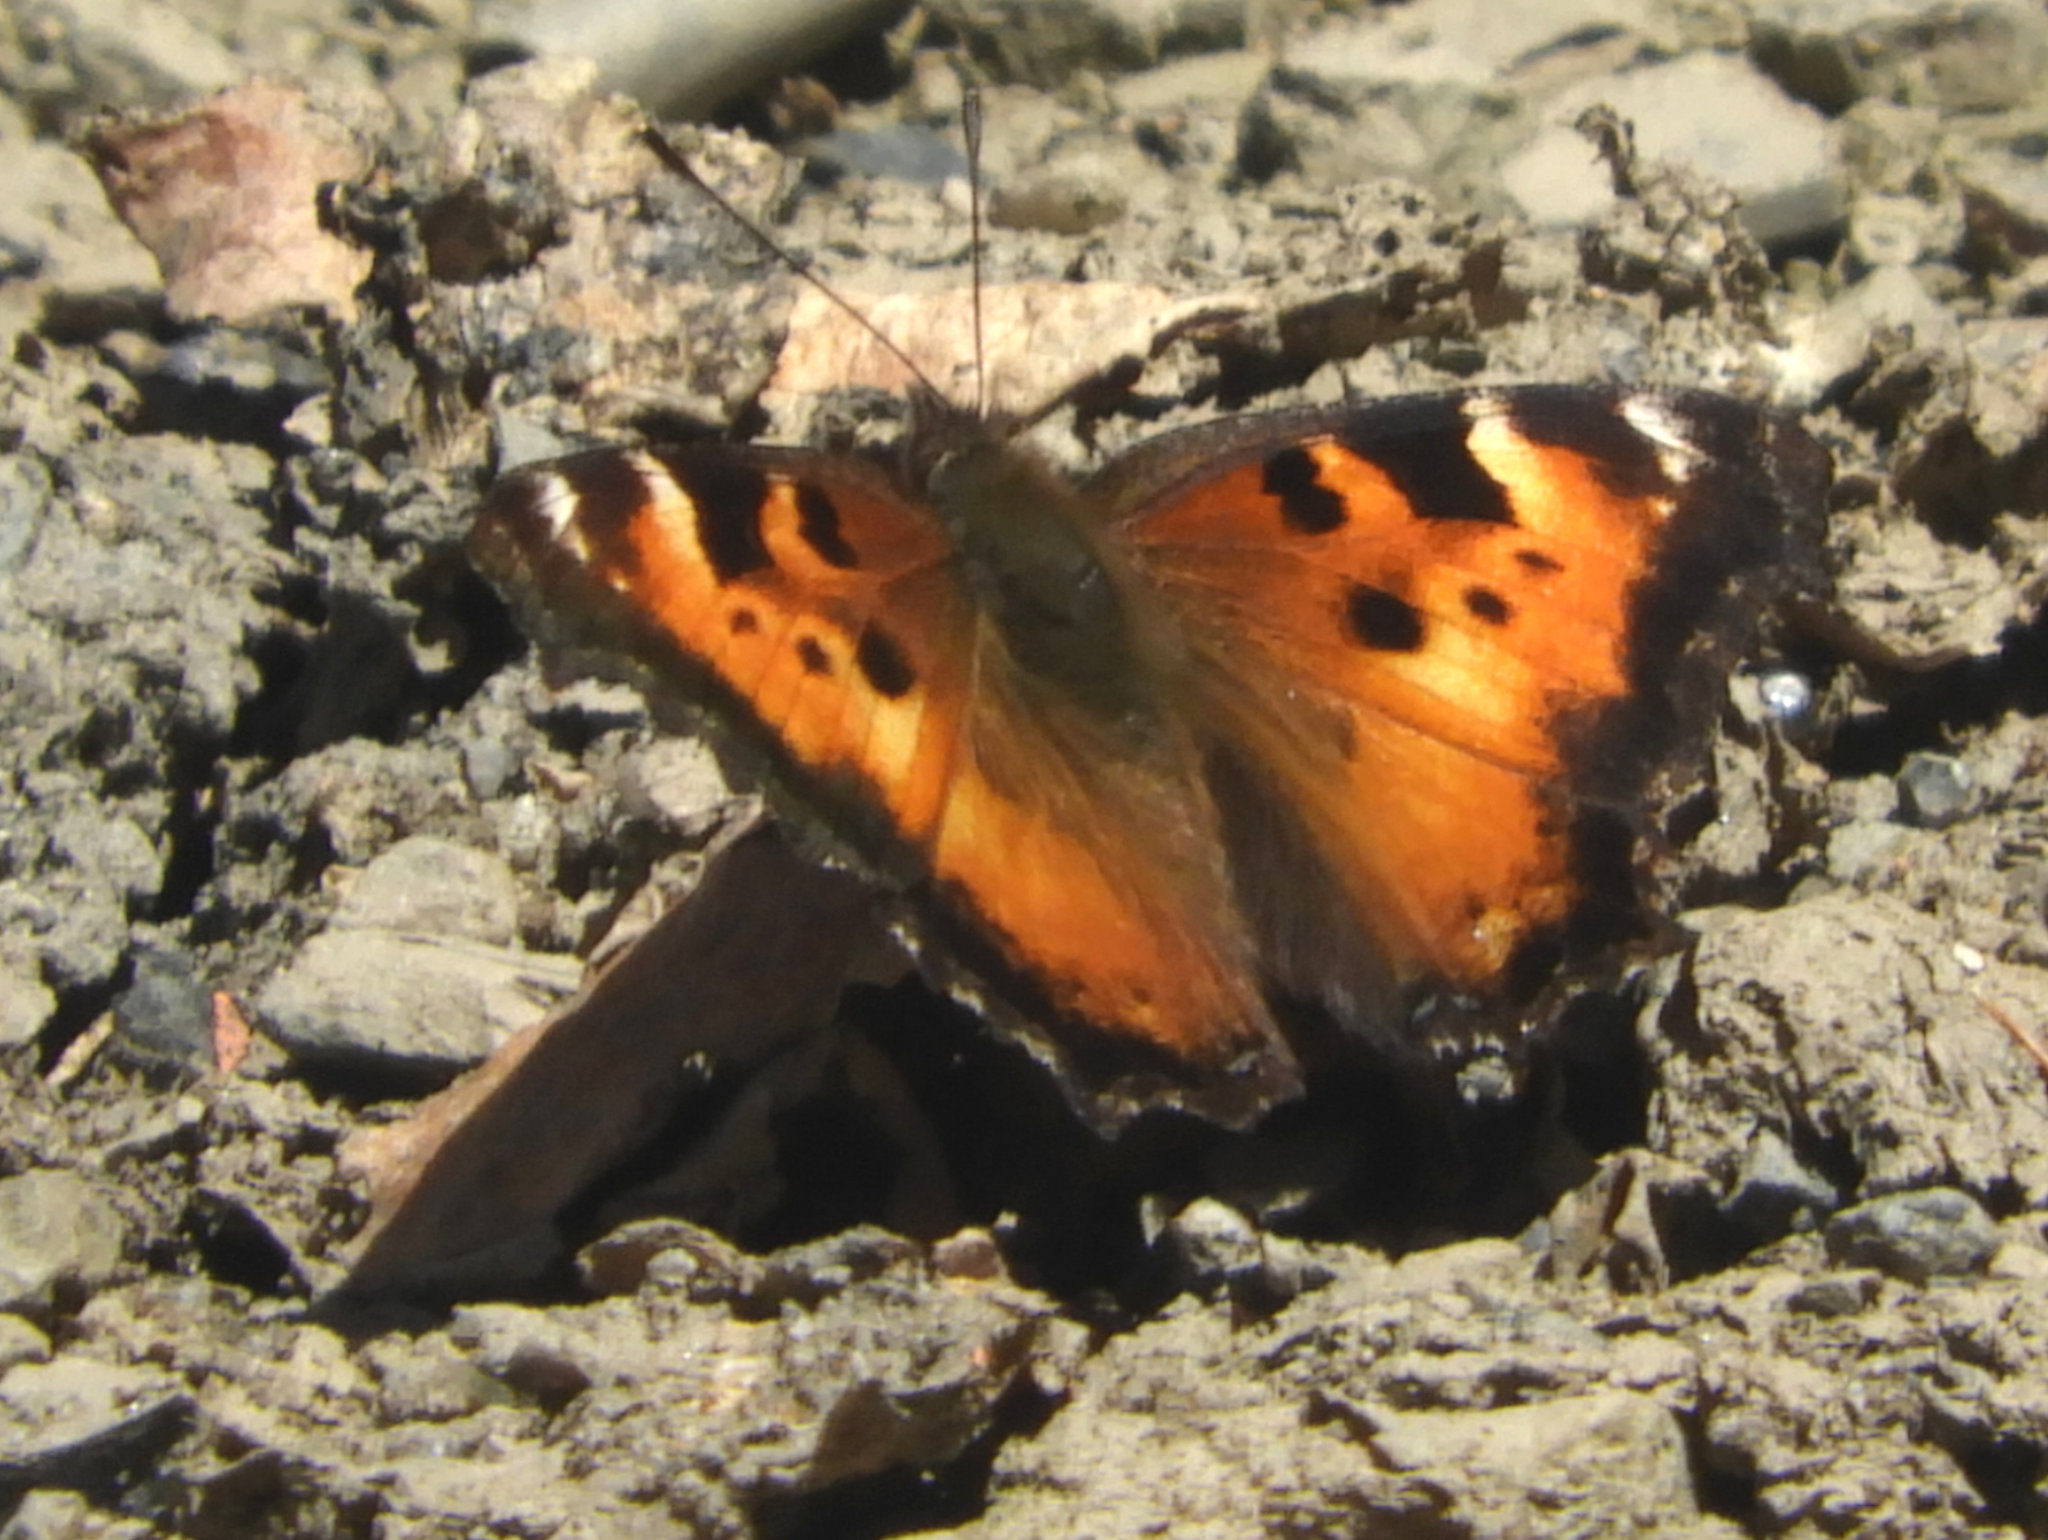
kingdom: Animalia
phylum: Arthropoda
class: Insecta
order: Lepidoptera
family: Nymphalidae
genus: Nymphalis
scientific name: Nymphalis californica
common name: California tortoiseshell
